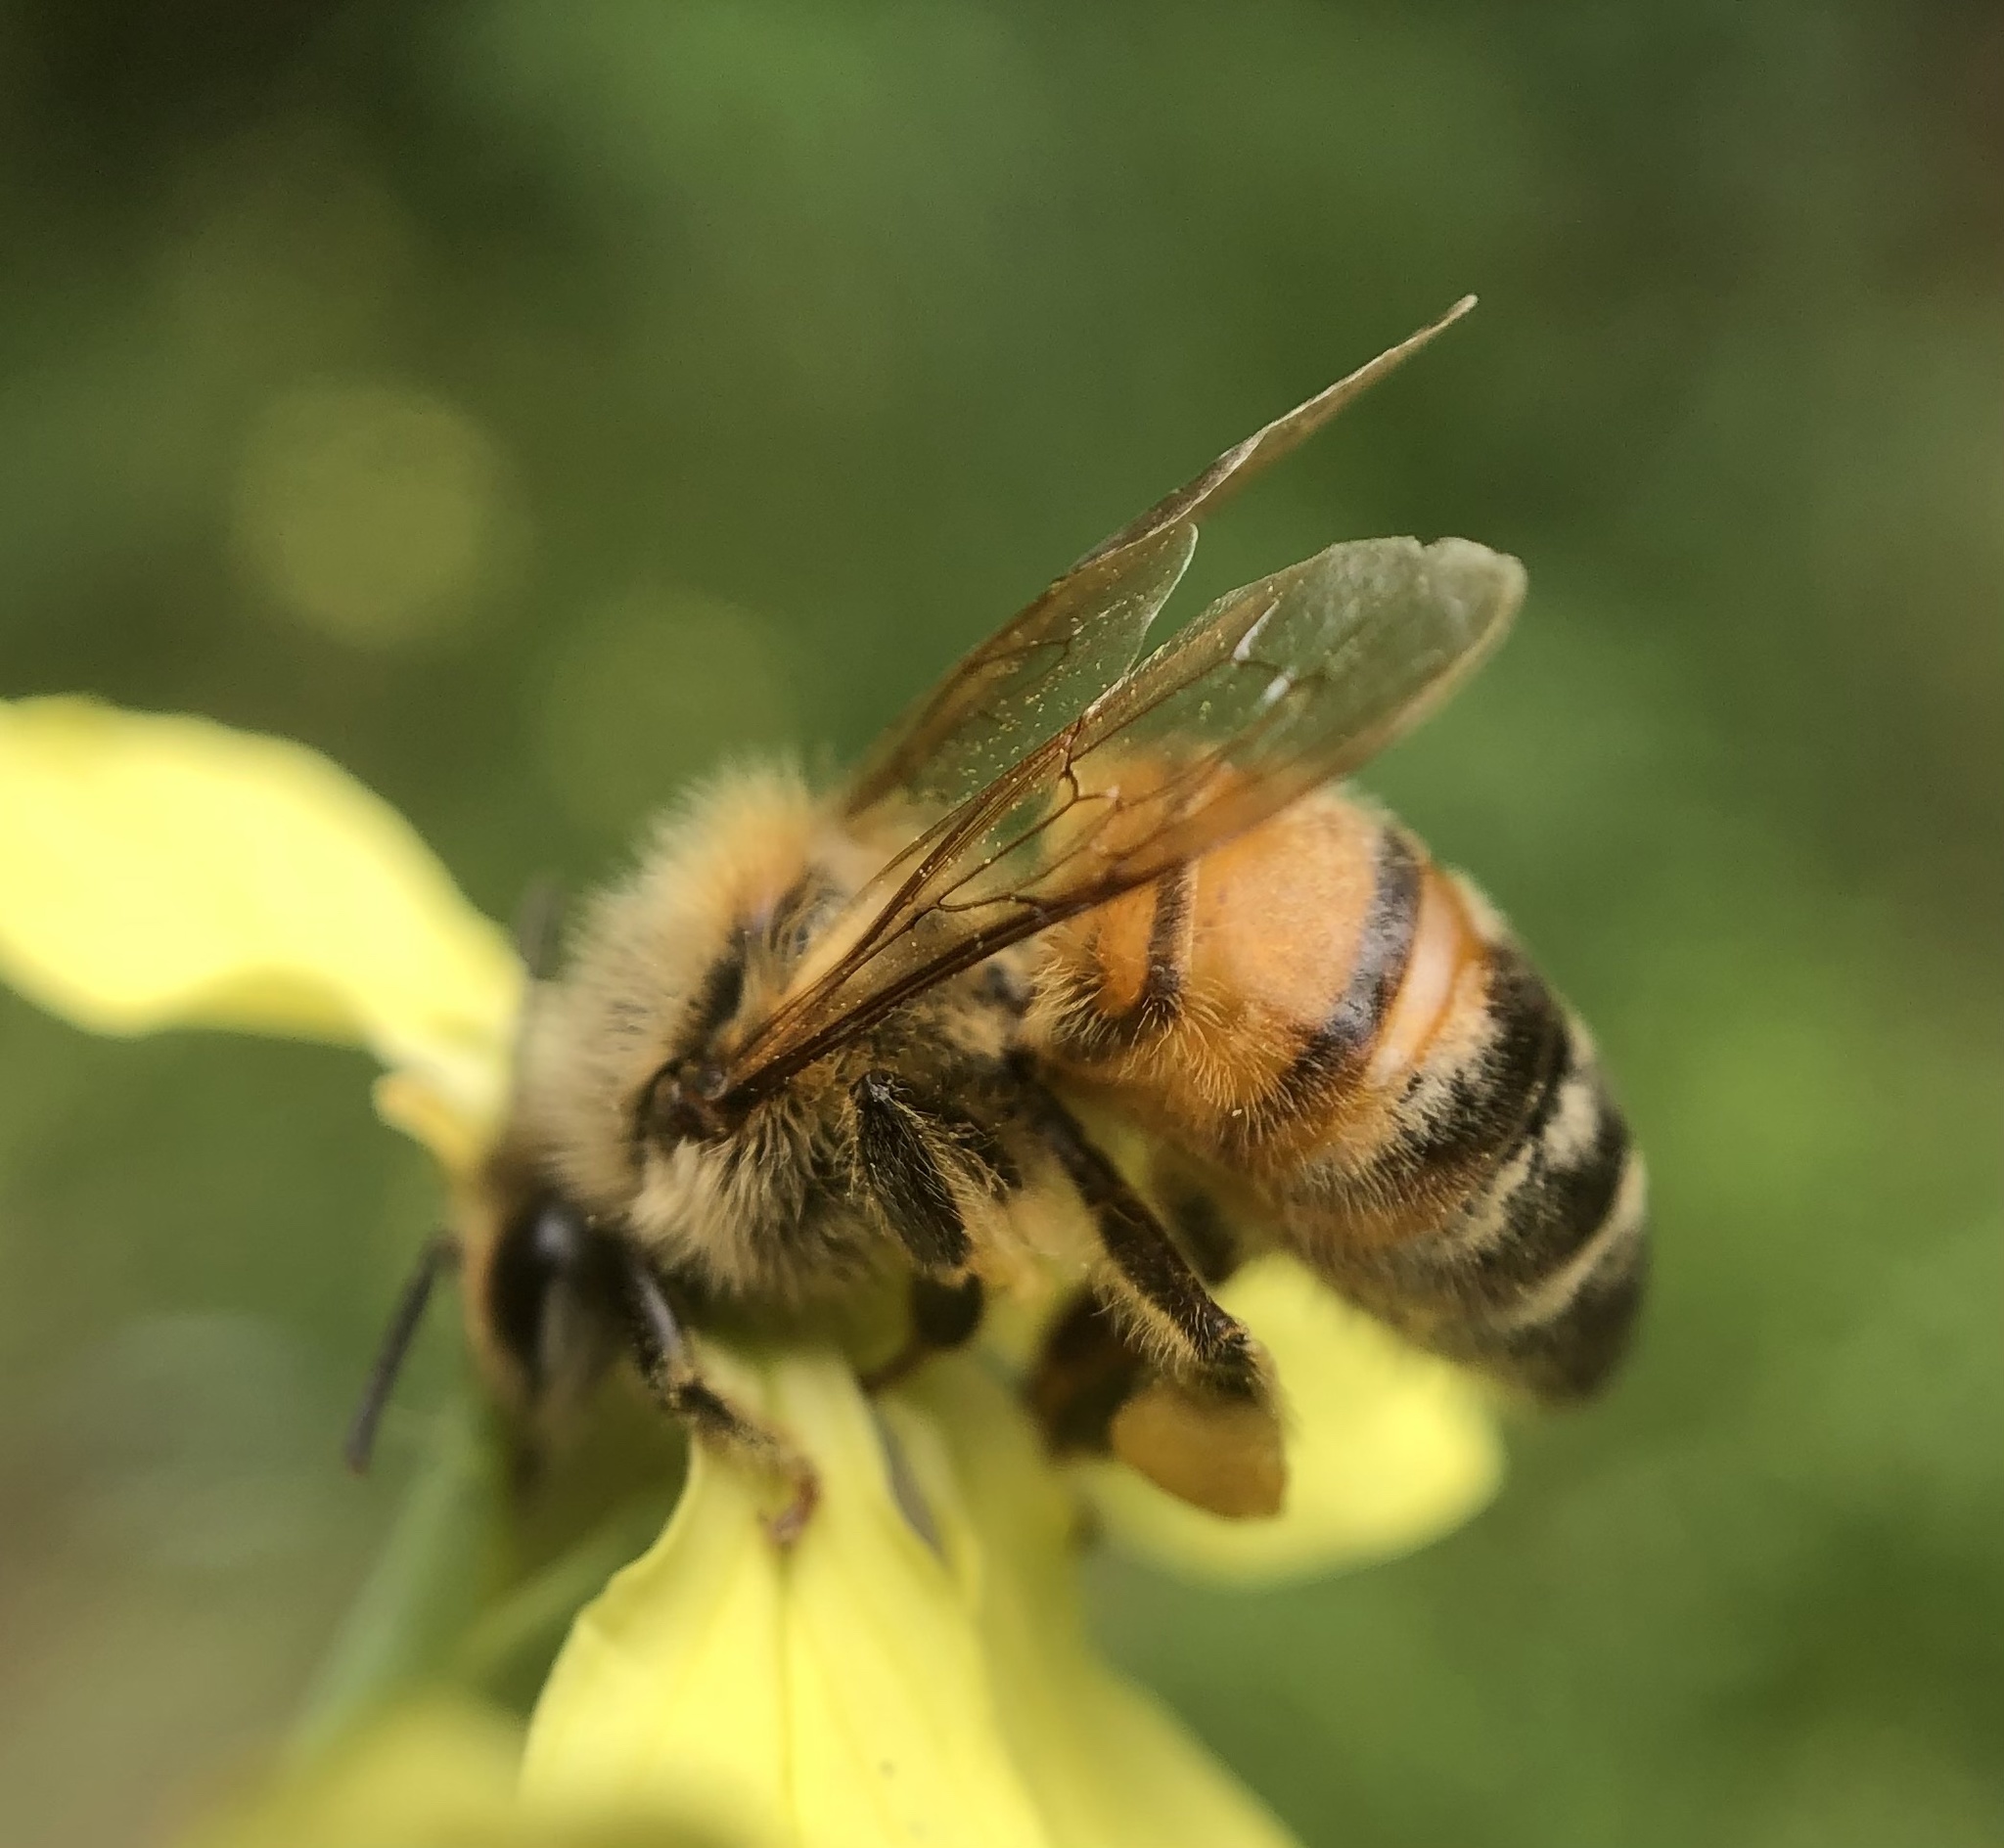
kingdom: Animalia
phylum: Arthropoda
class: Insecta
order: Hymenoptera
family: Apidae
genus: Apis
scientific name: Apis mellifera
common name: Honey bee
